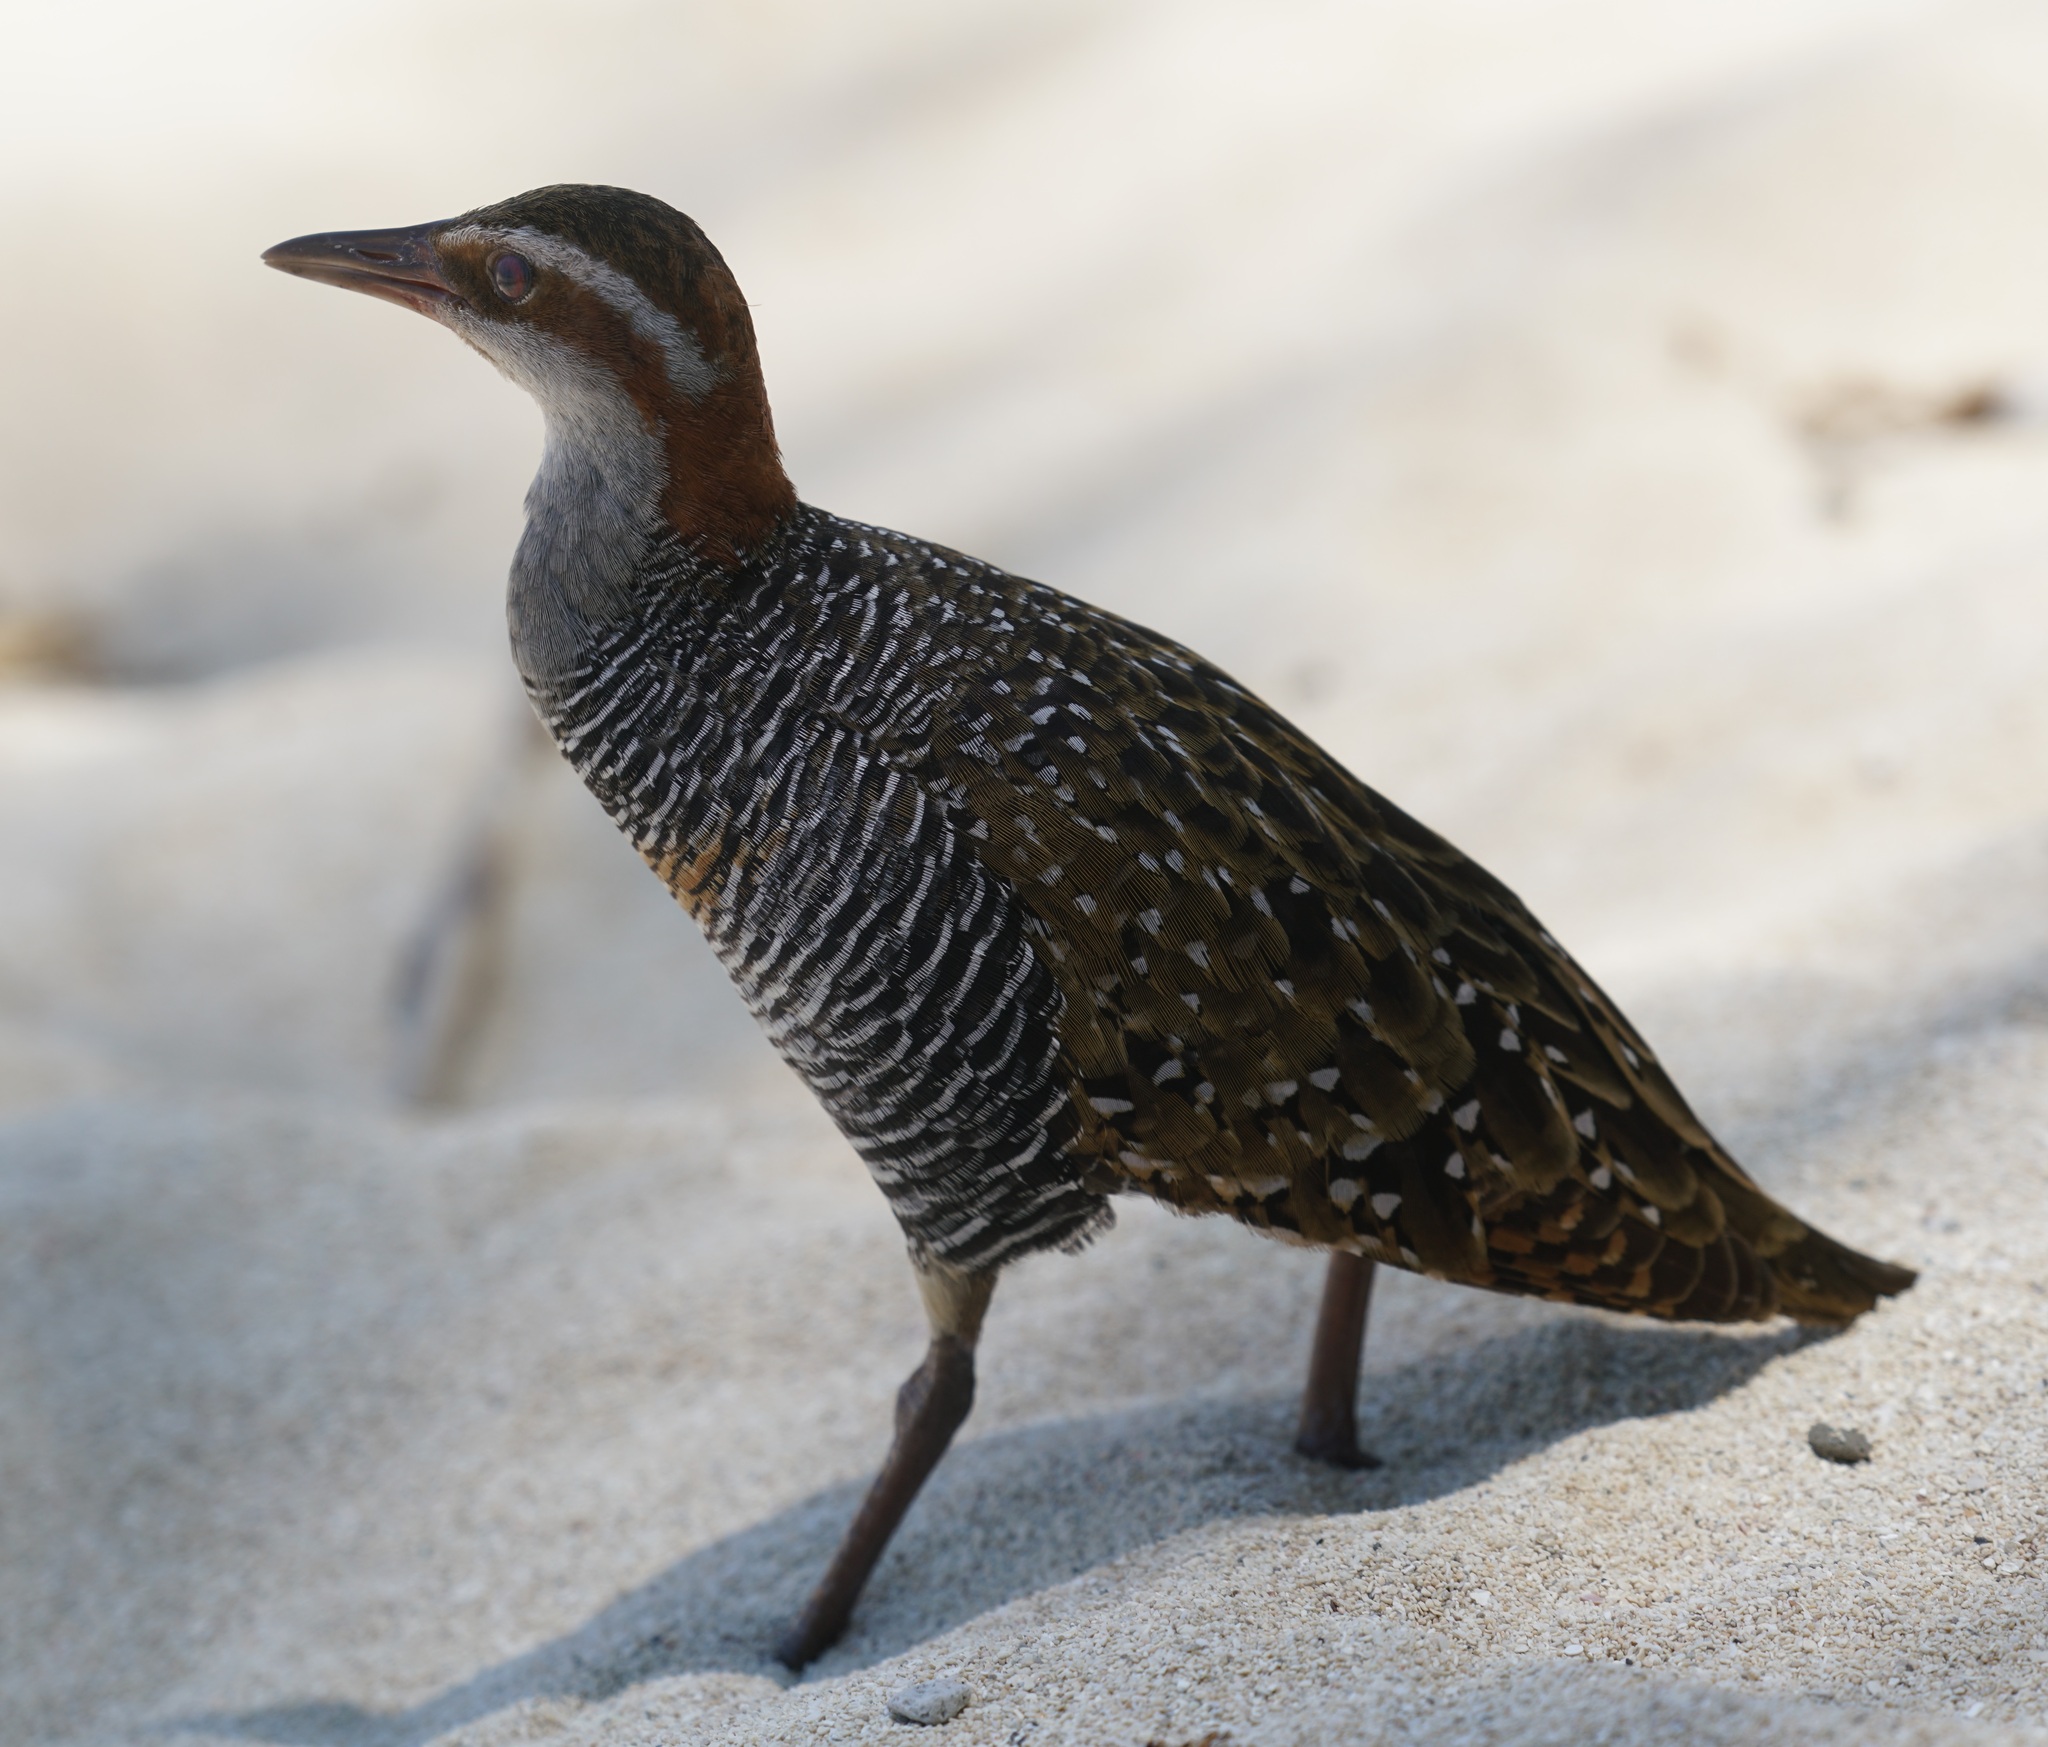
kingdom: Animalia
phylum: Chordata
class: Aves
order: Gruiformes
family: Rallidae
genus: Gallirallus
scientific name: Gallirallus philippensis
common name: Buff-banded rail
